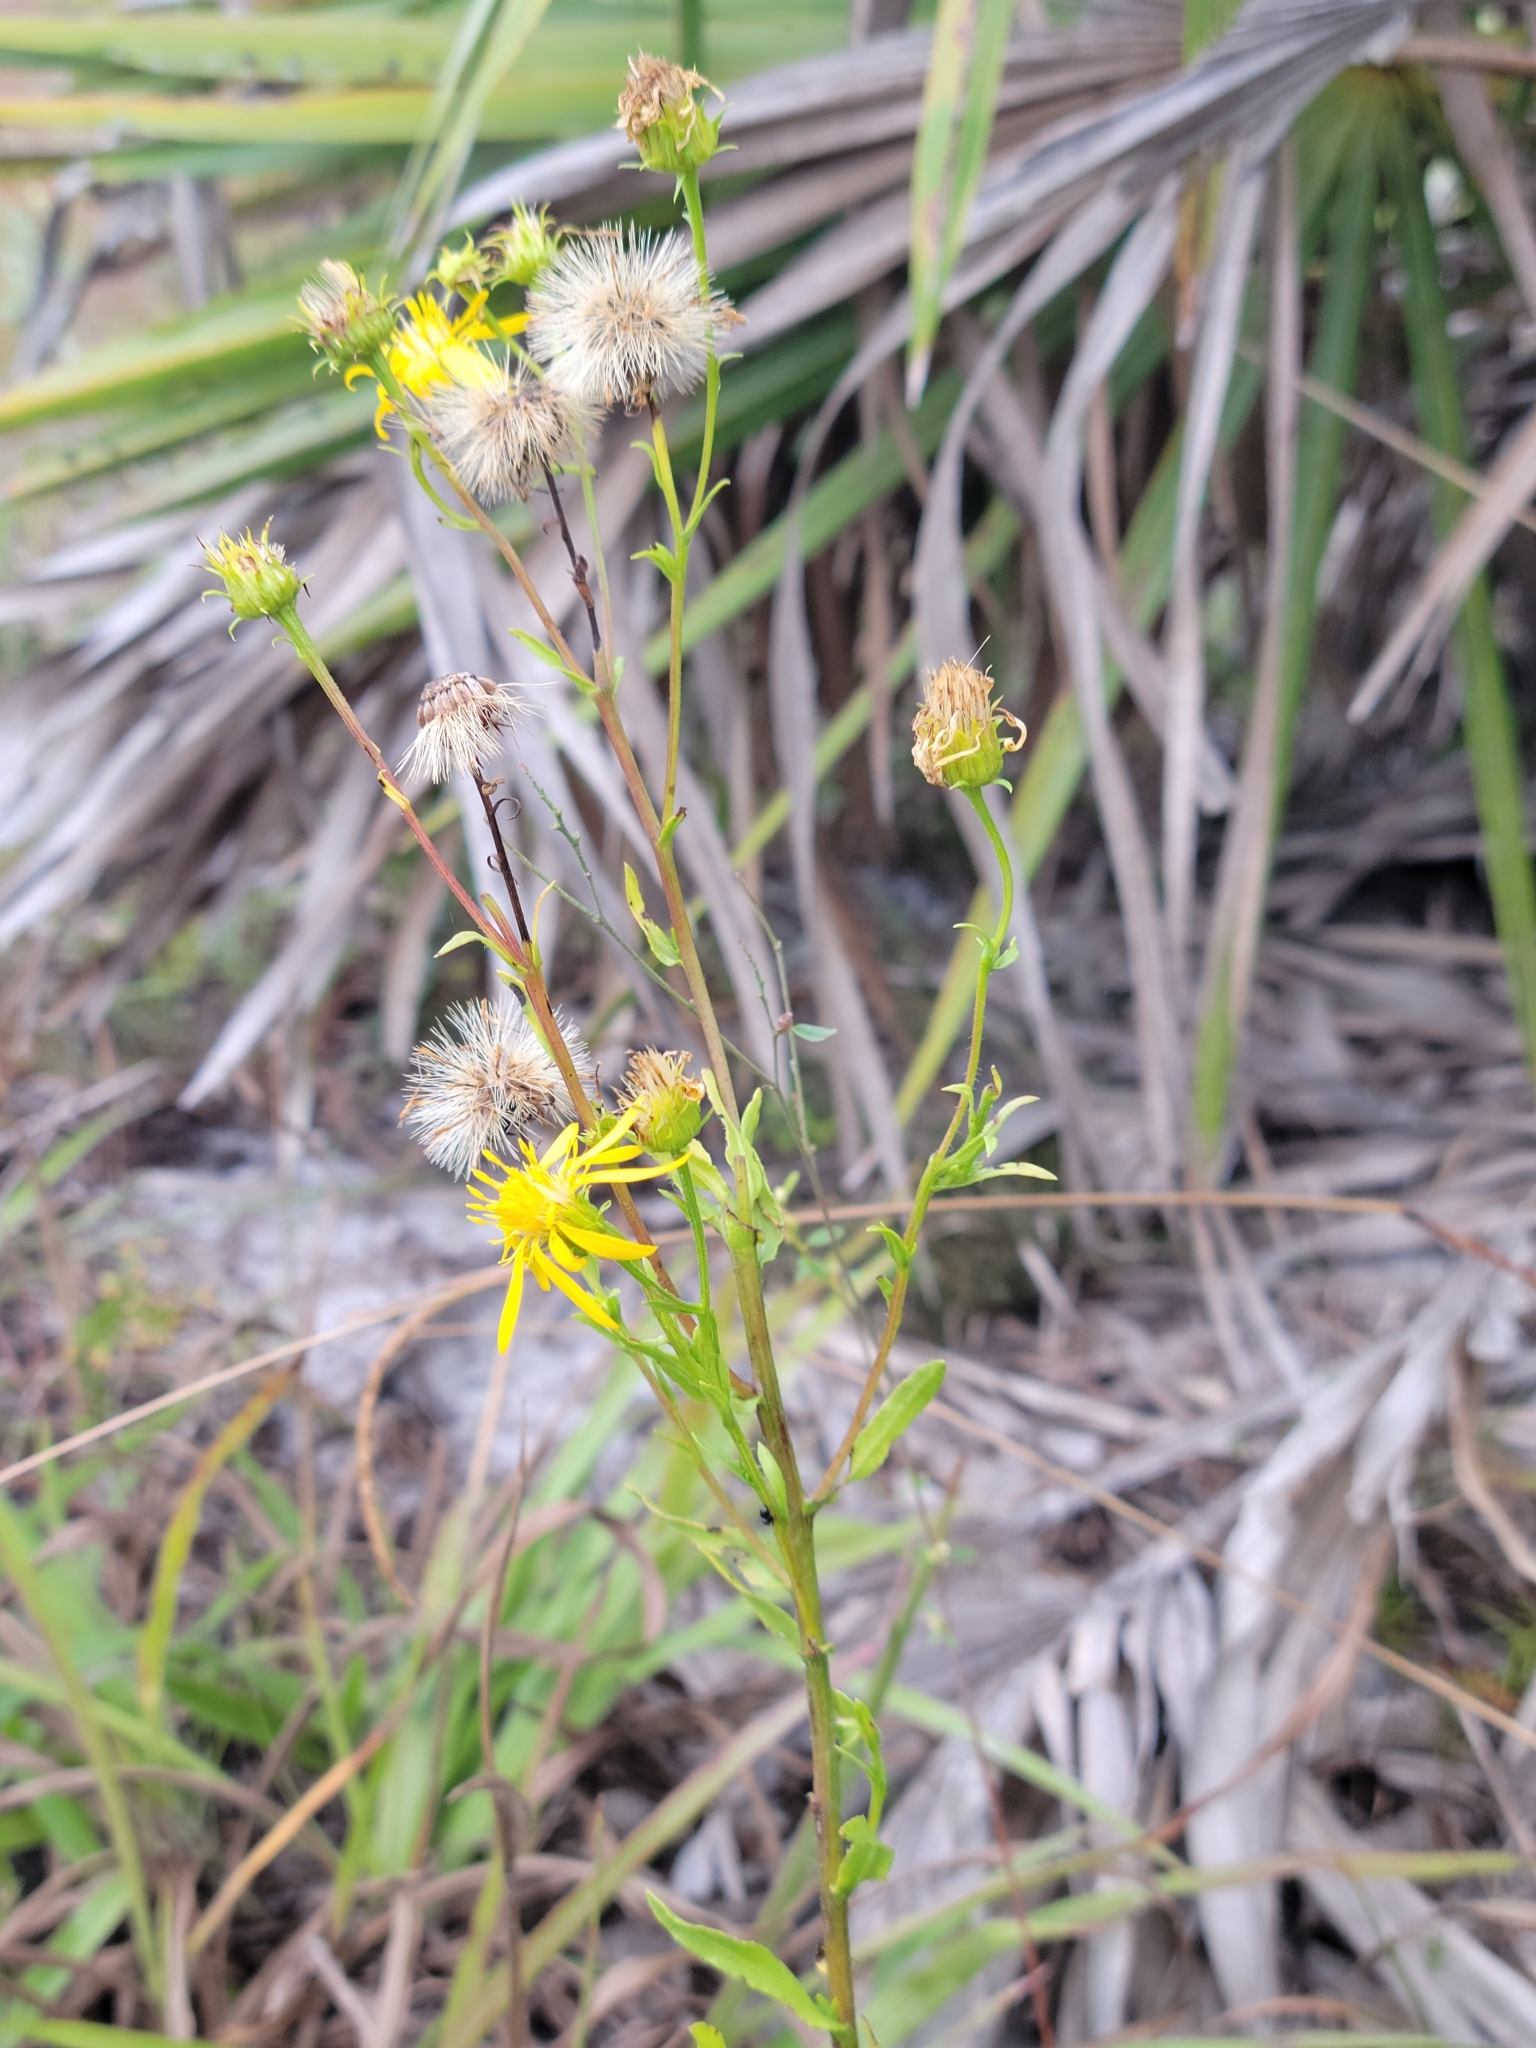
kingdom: Plantae
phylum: Tracheophyta
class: Magnoliopsida
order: Asterales
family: Asteraceae
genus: Chrysopsis
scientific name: Chrysopsis subulata
